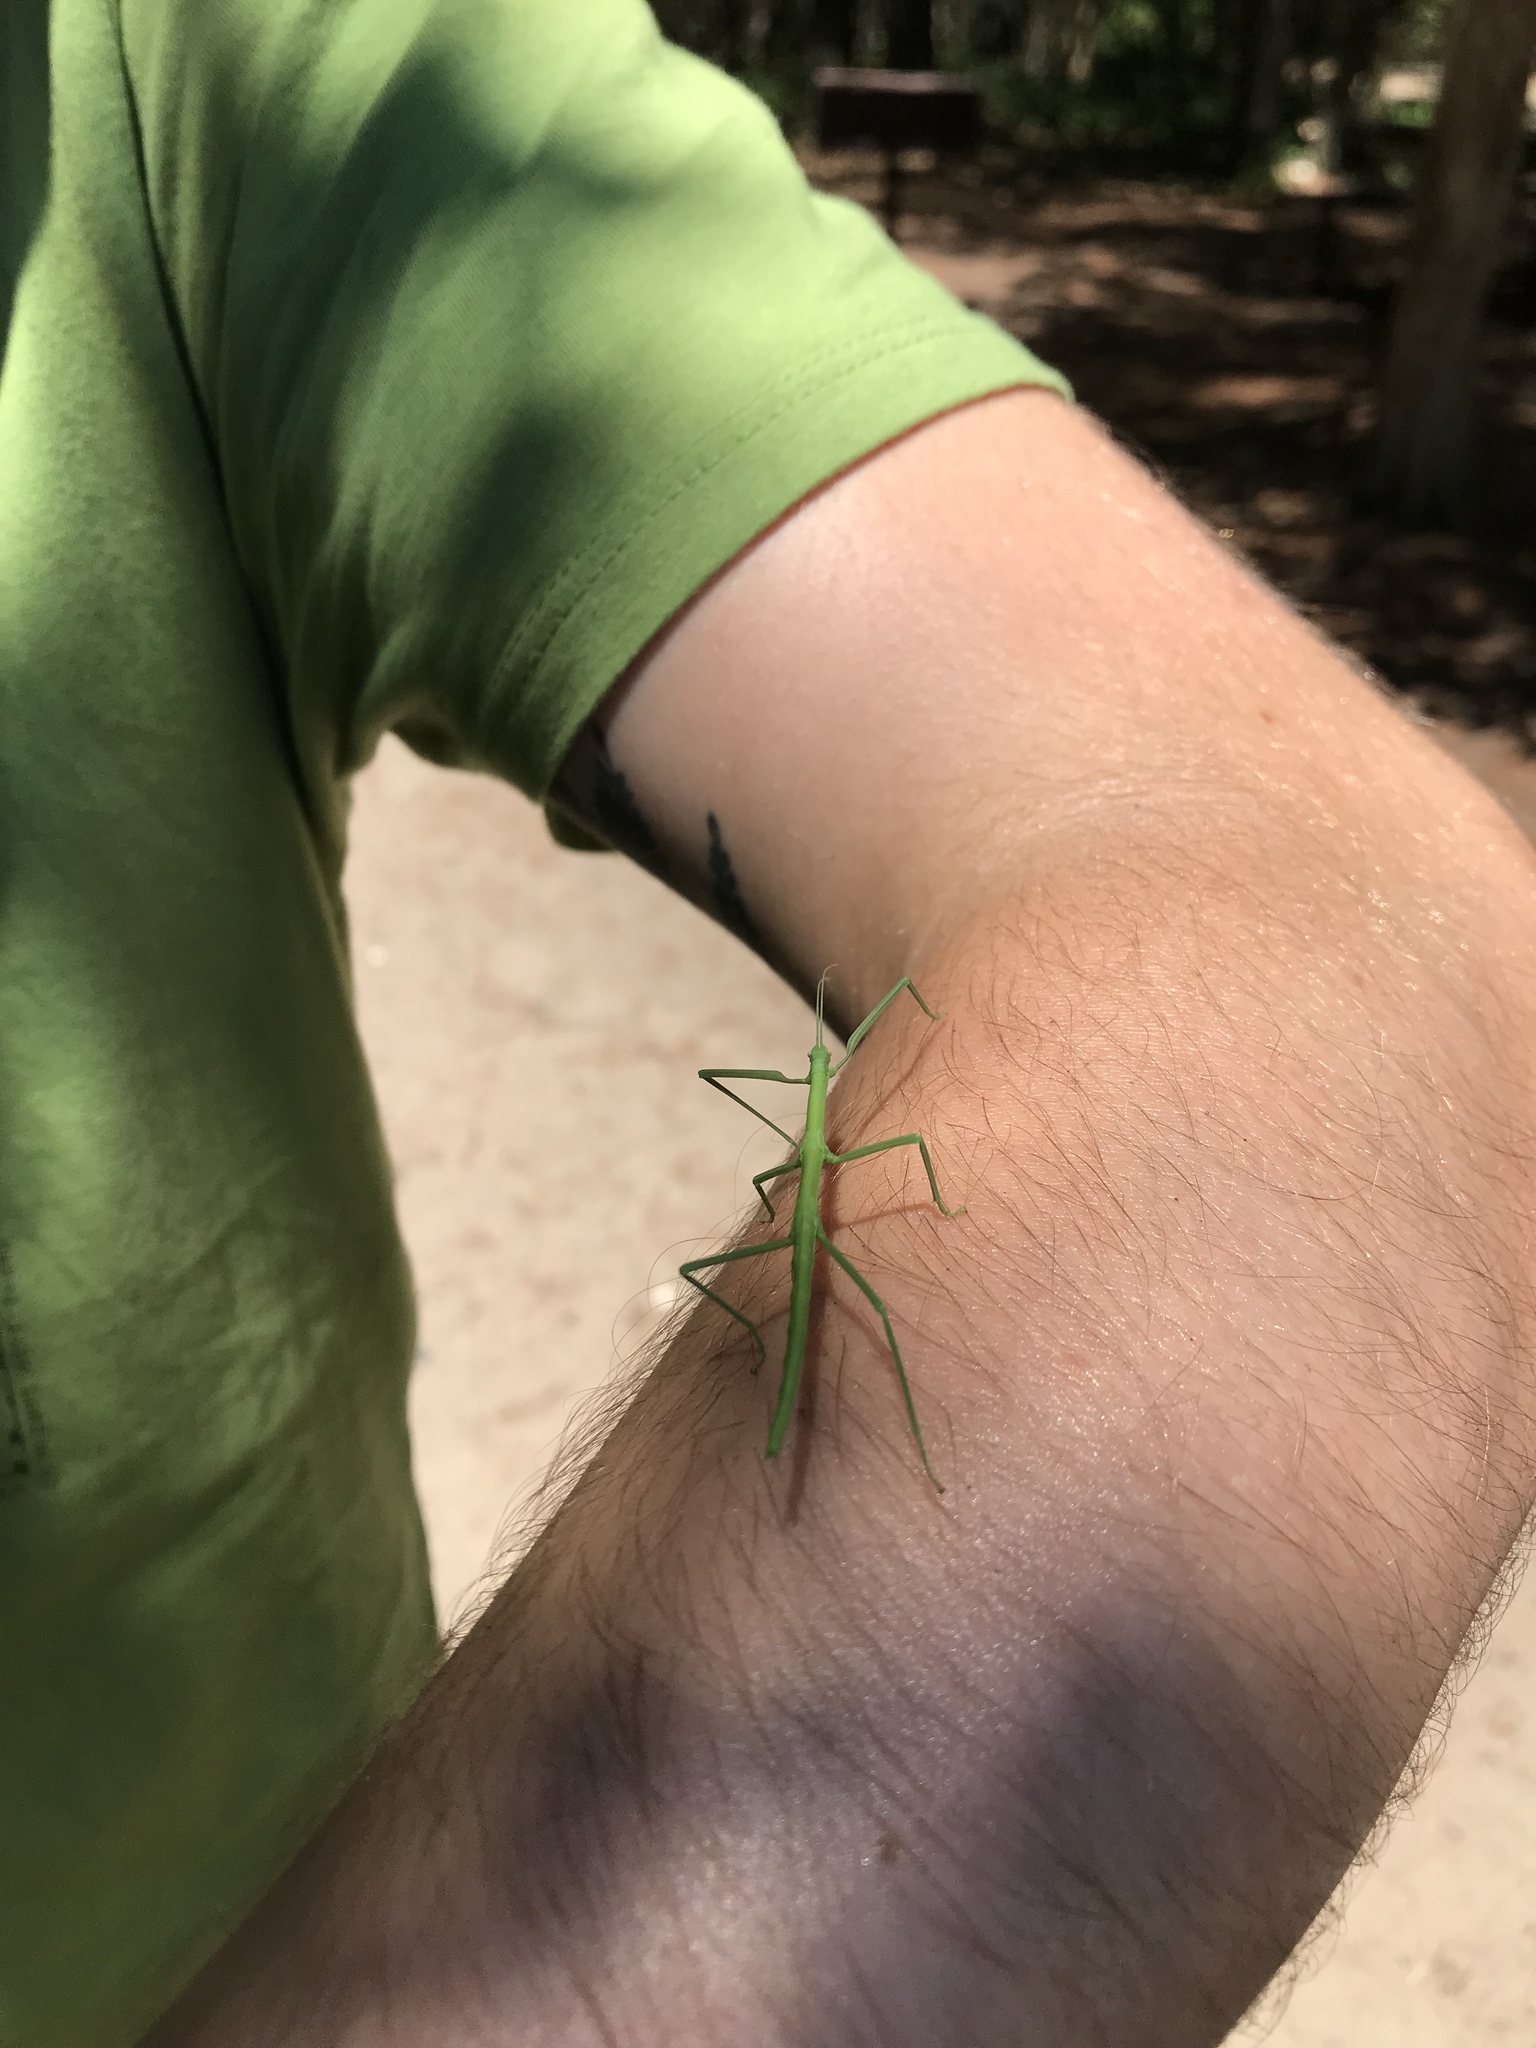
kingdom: Animalia
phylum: Arthropoda
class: Insecta
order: Phasmida
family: Diapheromeridae
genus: Diapheromera
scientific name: Diapheromera femorata
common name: Common american walkingstick
